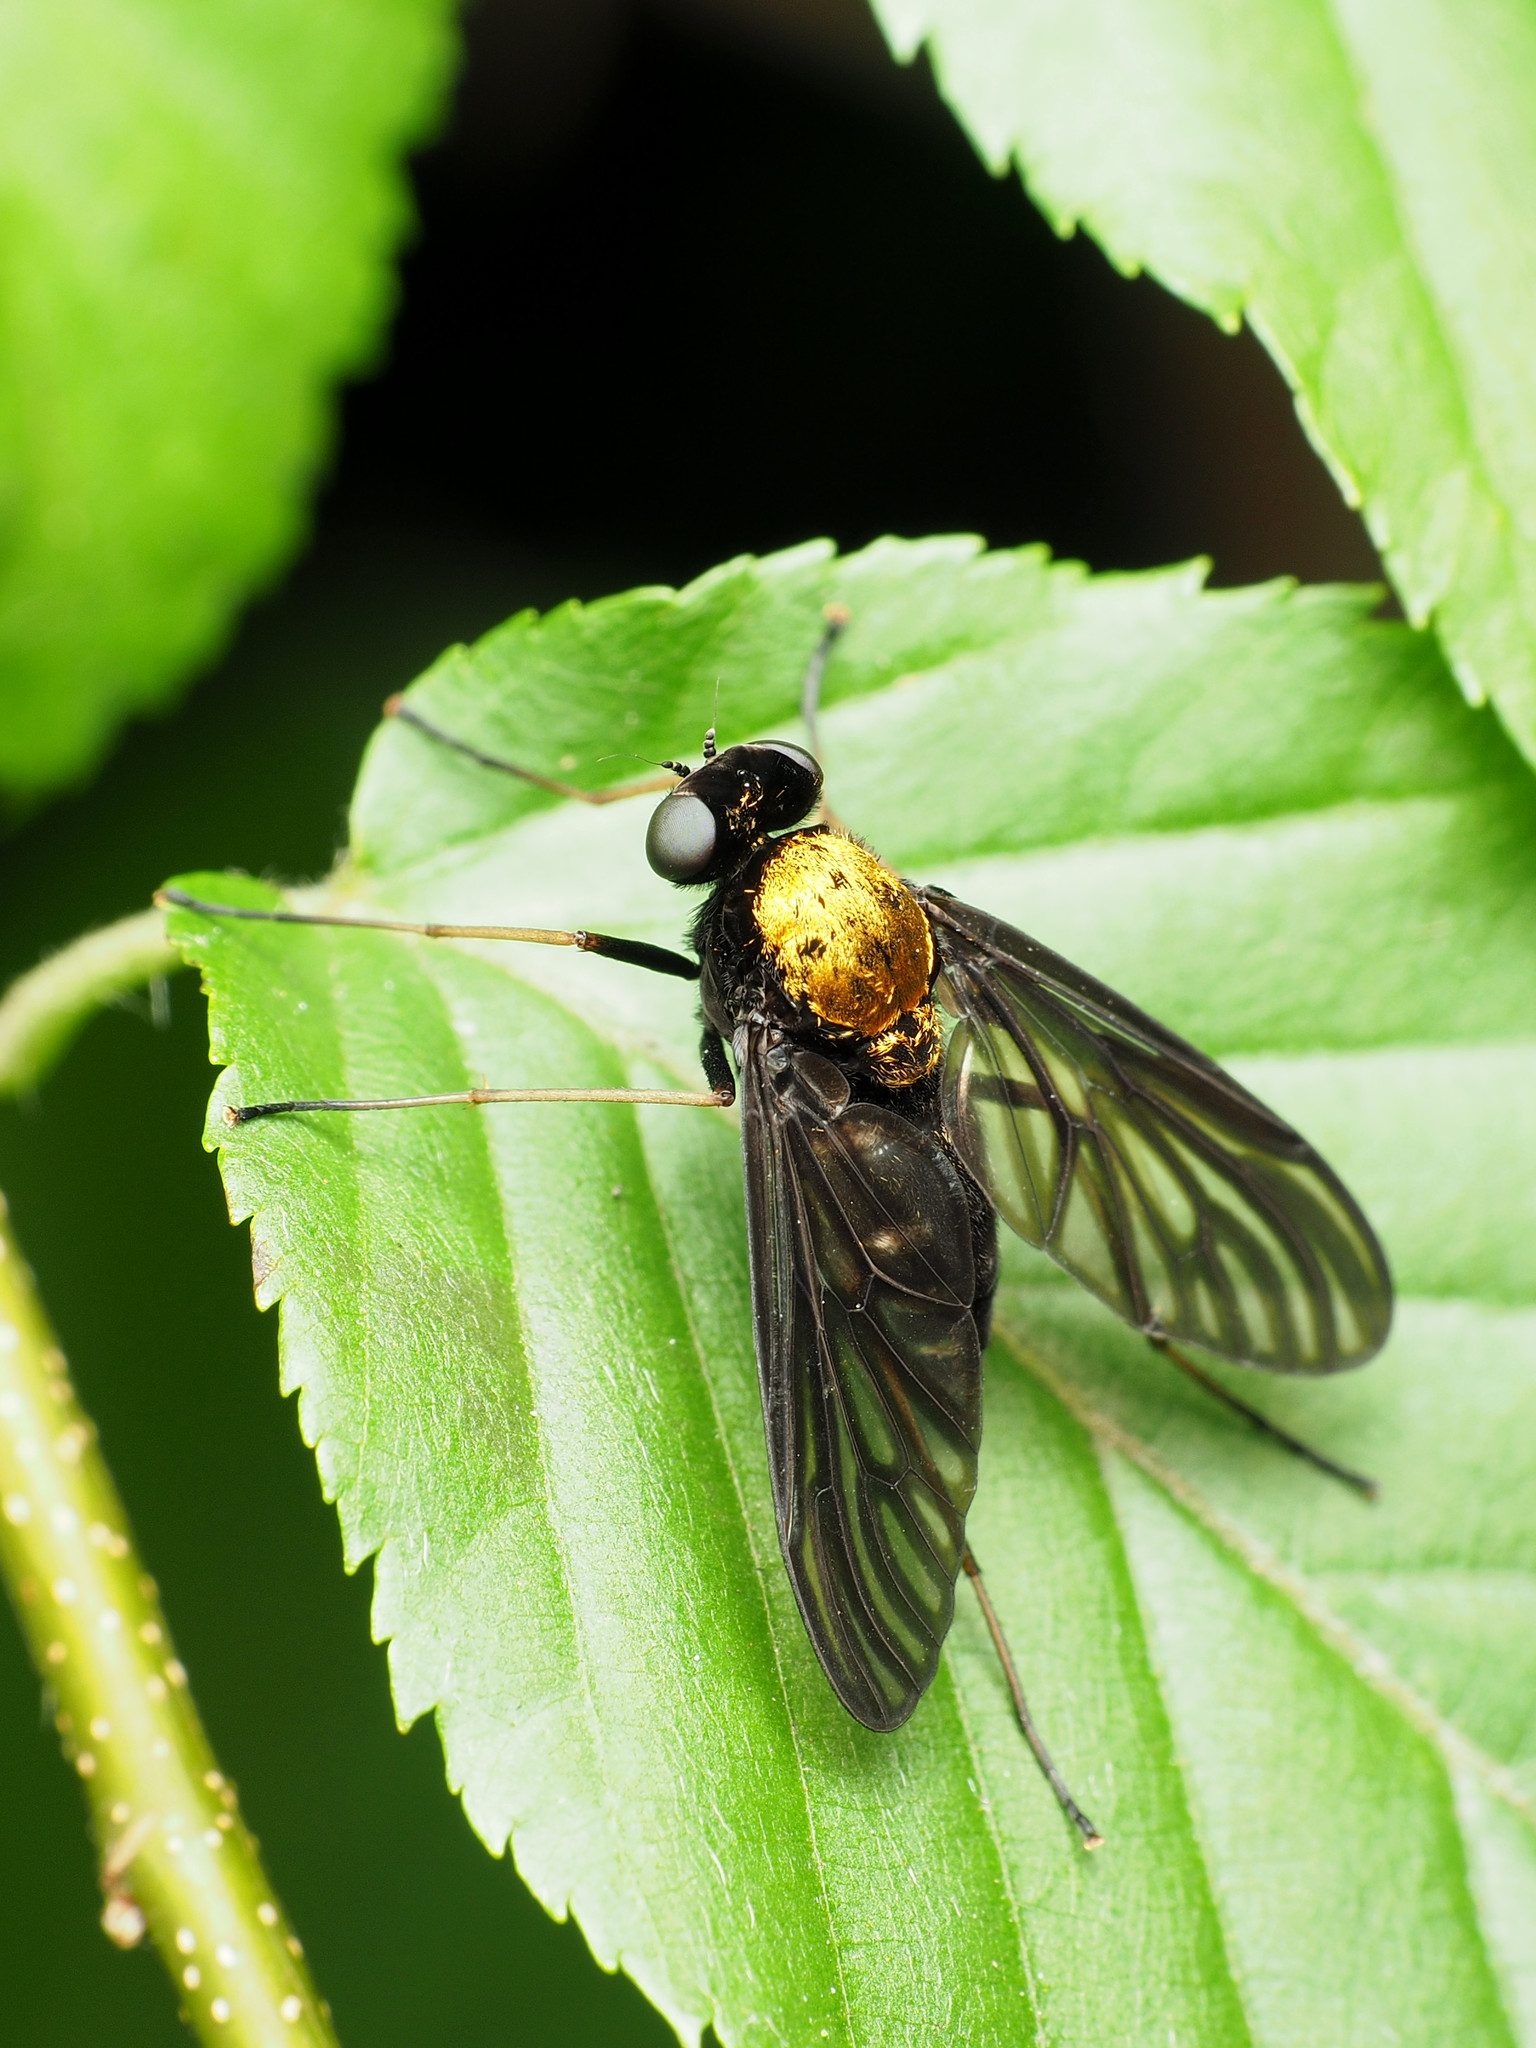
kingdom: Animalia
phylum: Arthropoda
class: Insecta
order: Diptera
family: Rhagionidae
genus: Chrysopilus
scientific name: Chrysopilus thoracicus
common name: Golden-backed snipe fly
